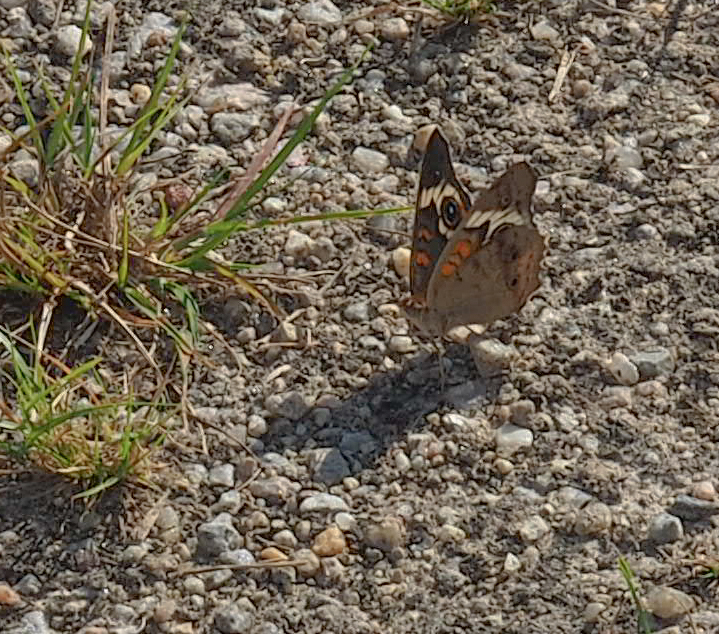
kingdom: Animalia
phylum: Arthropoda
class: Insecta
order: Lepidoptera
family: Nymphalidae
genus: Junonia
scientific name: Junonia coenia
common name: Common buckeye
